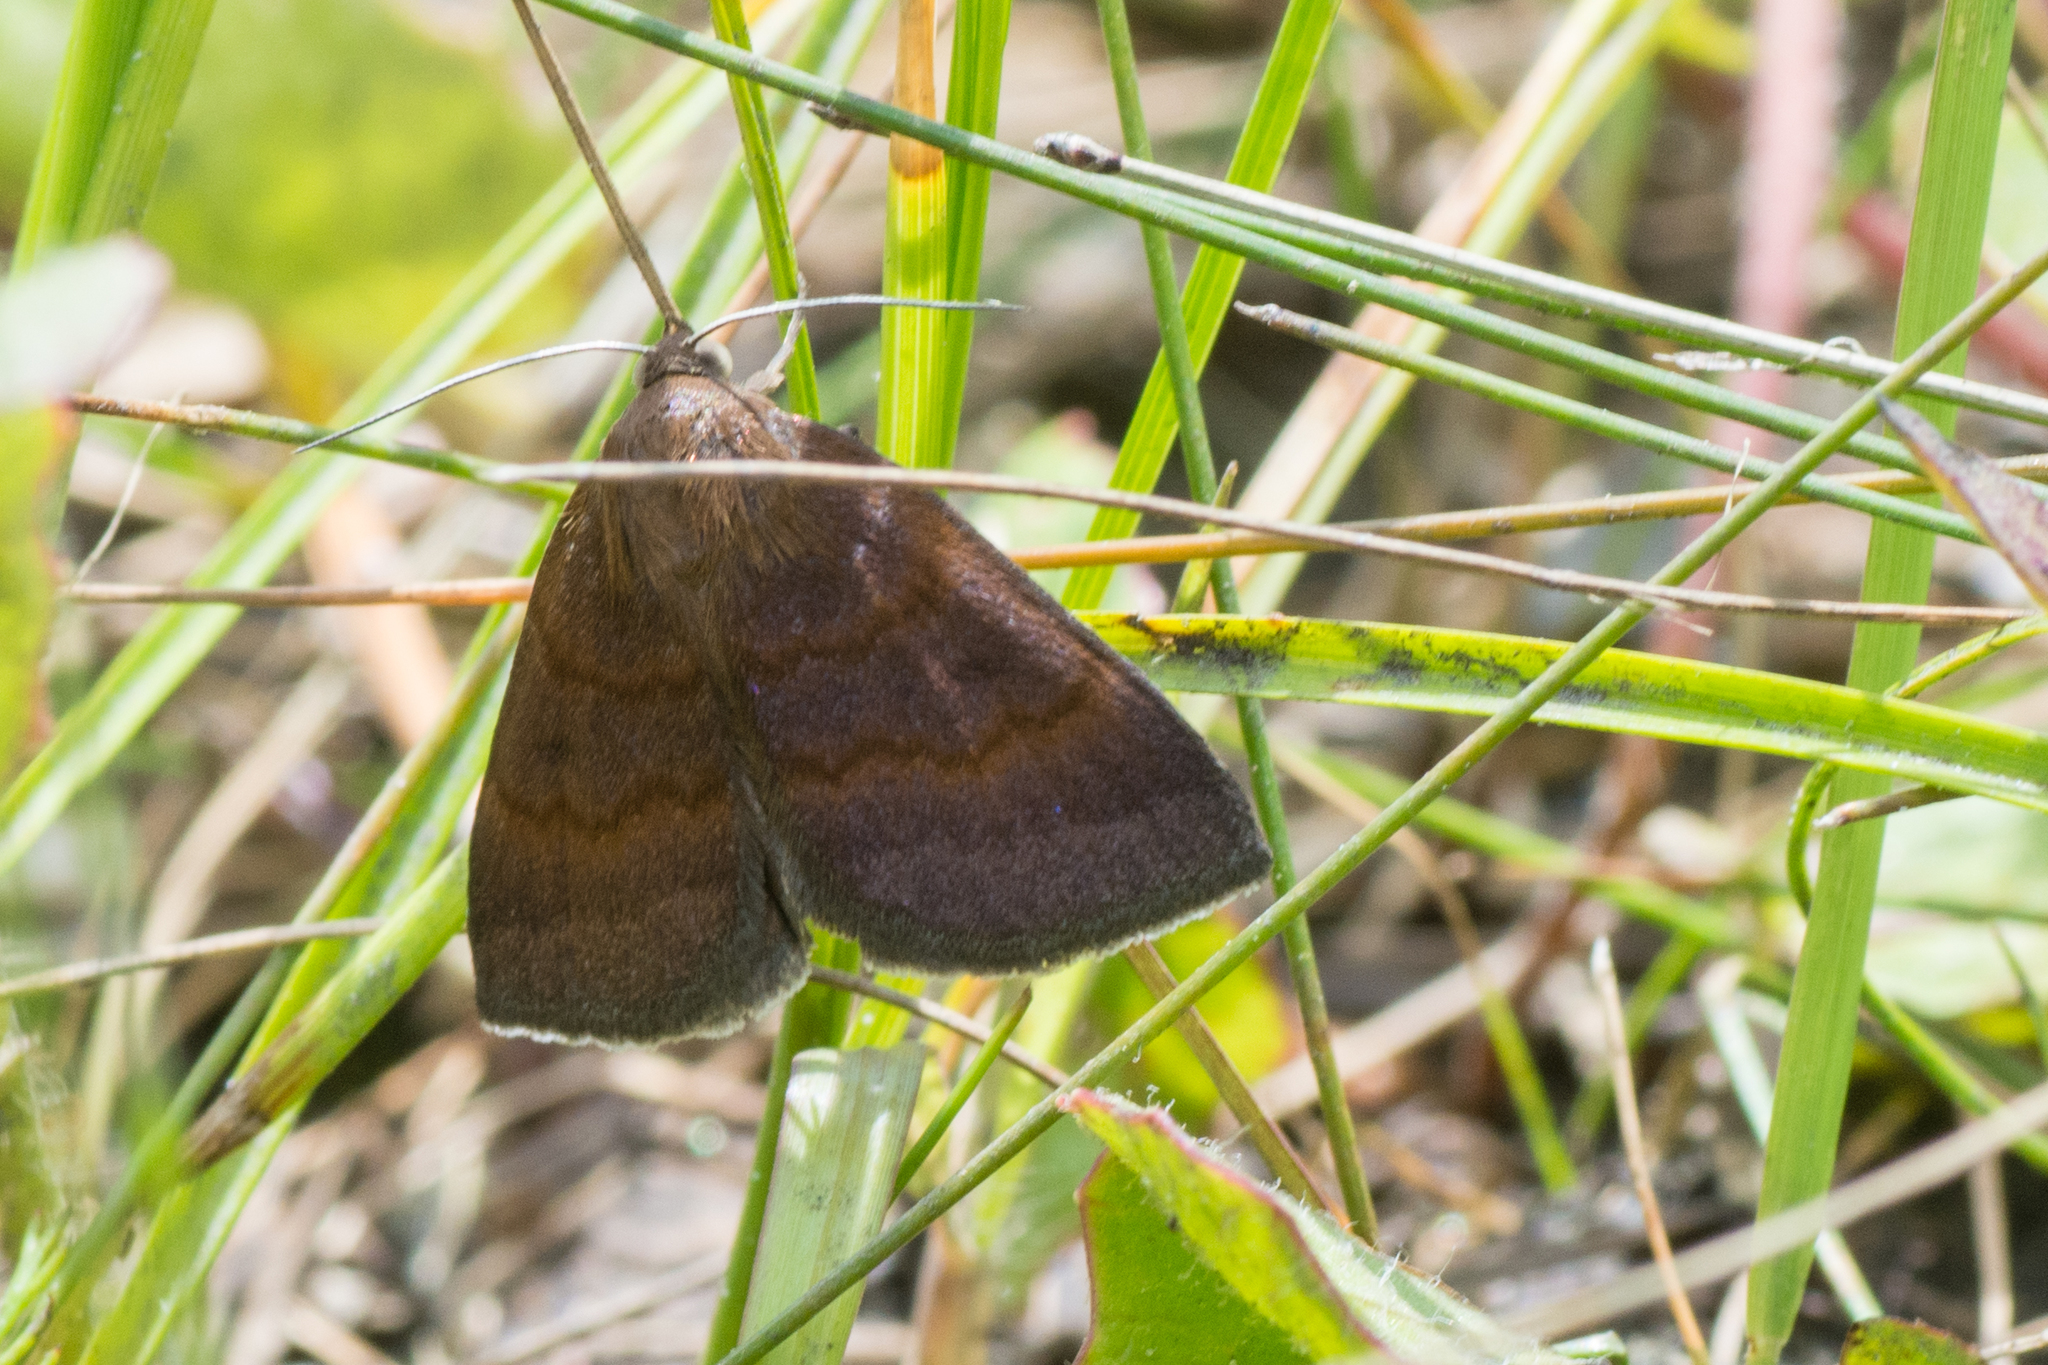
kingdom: Animalia
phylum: Arthropoda
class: Insecta
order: Lepidoptera
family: Erebidae
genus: Argyrostrotis
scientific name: Argyrostrotis deleta
